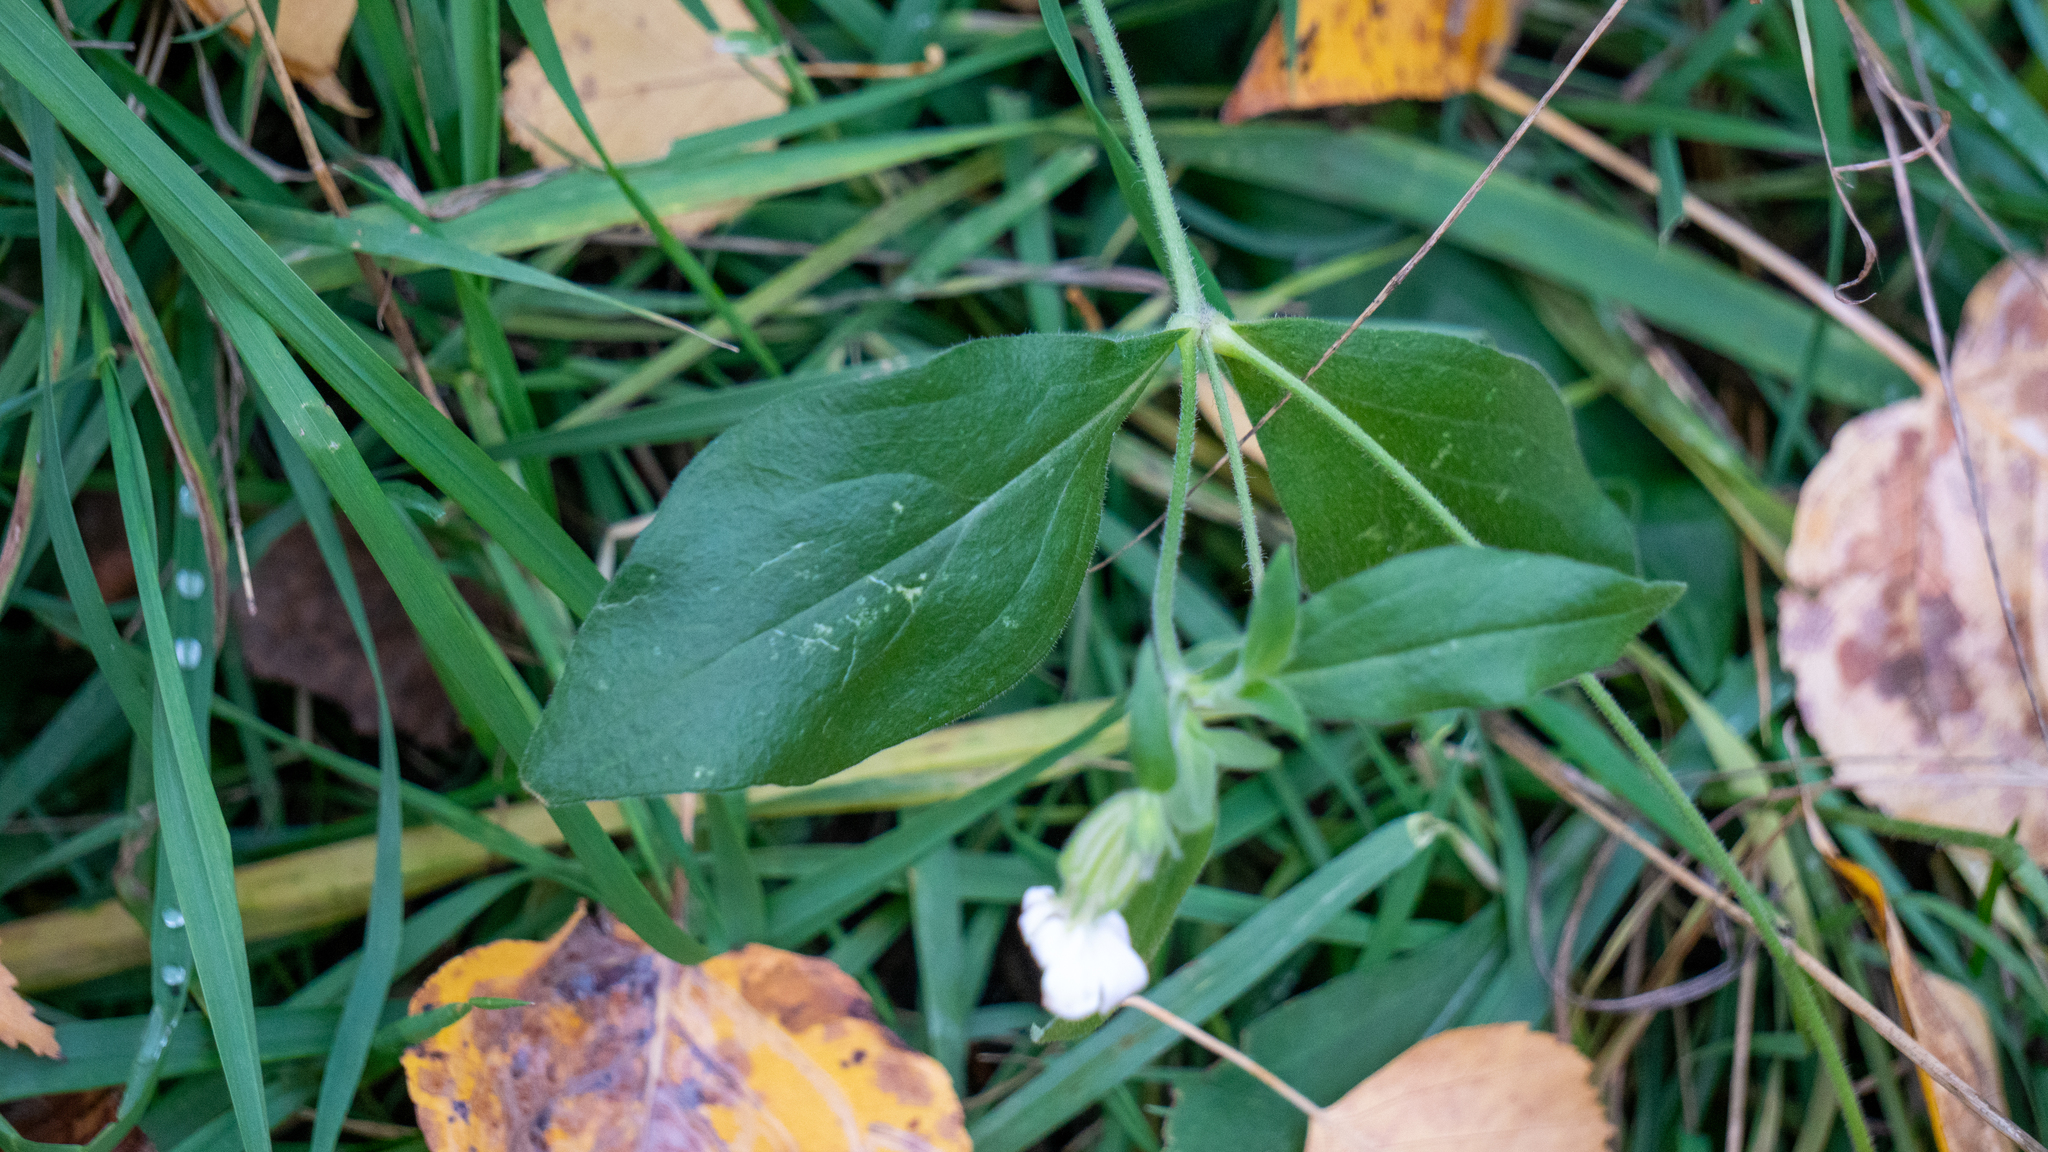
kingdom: Plantae
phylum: Tracheophyta
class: Magnoliopsida
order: Caryophyllales
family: Caryophyllaceae
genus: Silene
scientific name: Silene latifolia
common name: White campion
